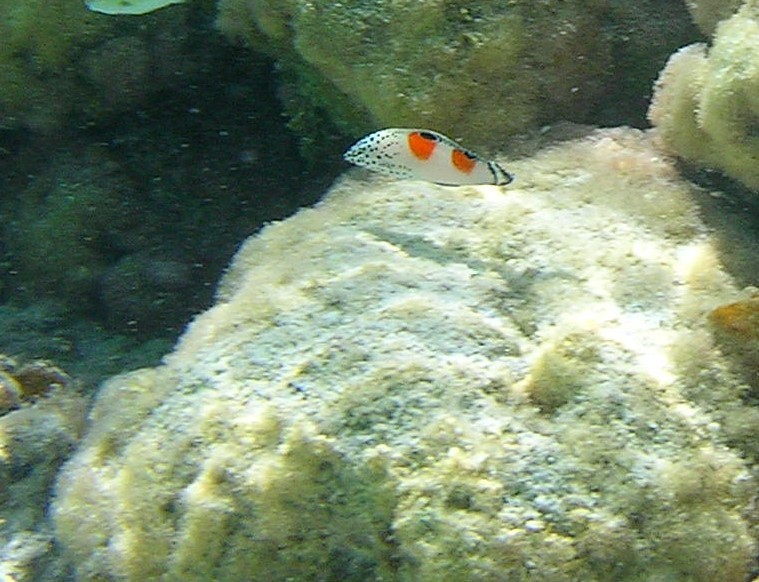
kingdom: Animalia
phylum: Chordata
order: Perciformes
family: Labridae
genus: Coris
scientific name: Coris aygula
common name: Clown coris
